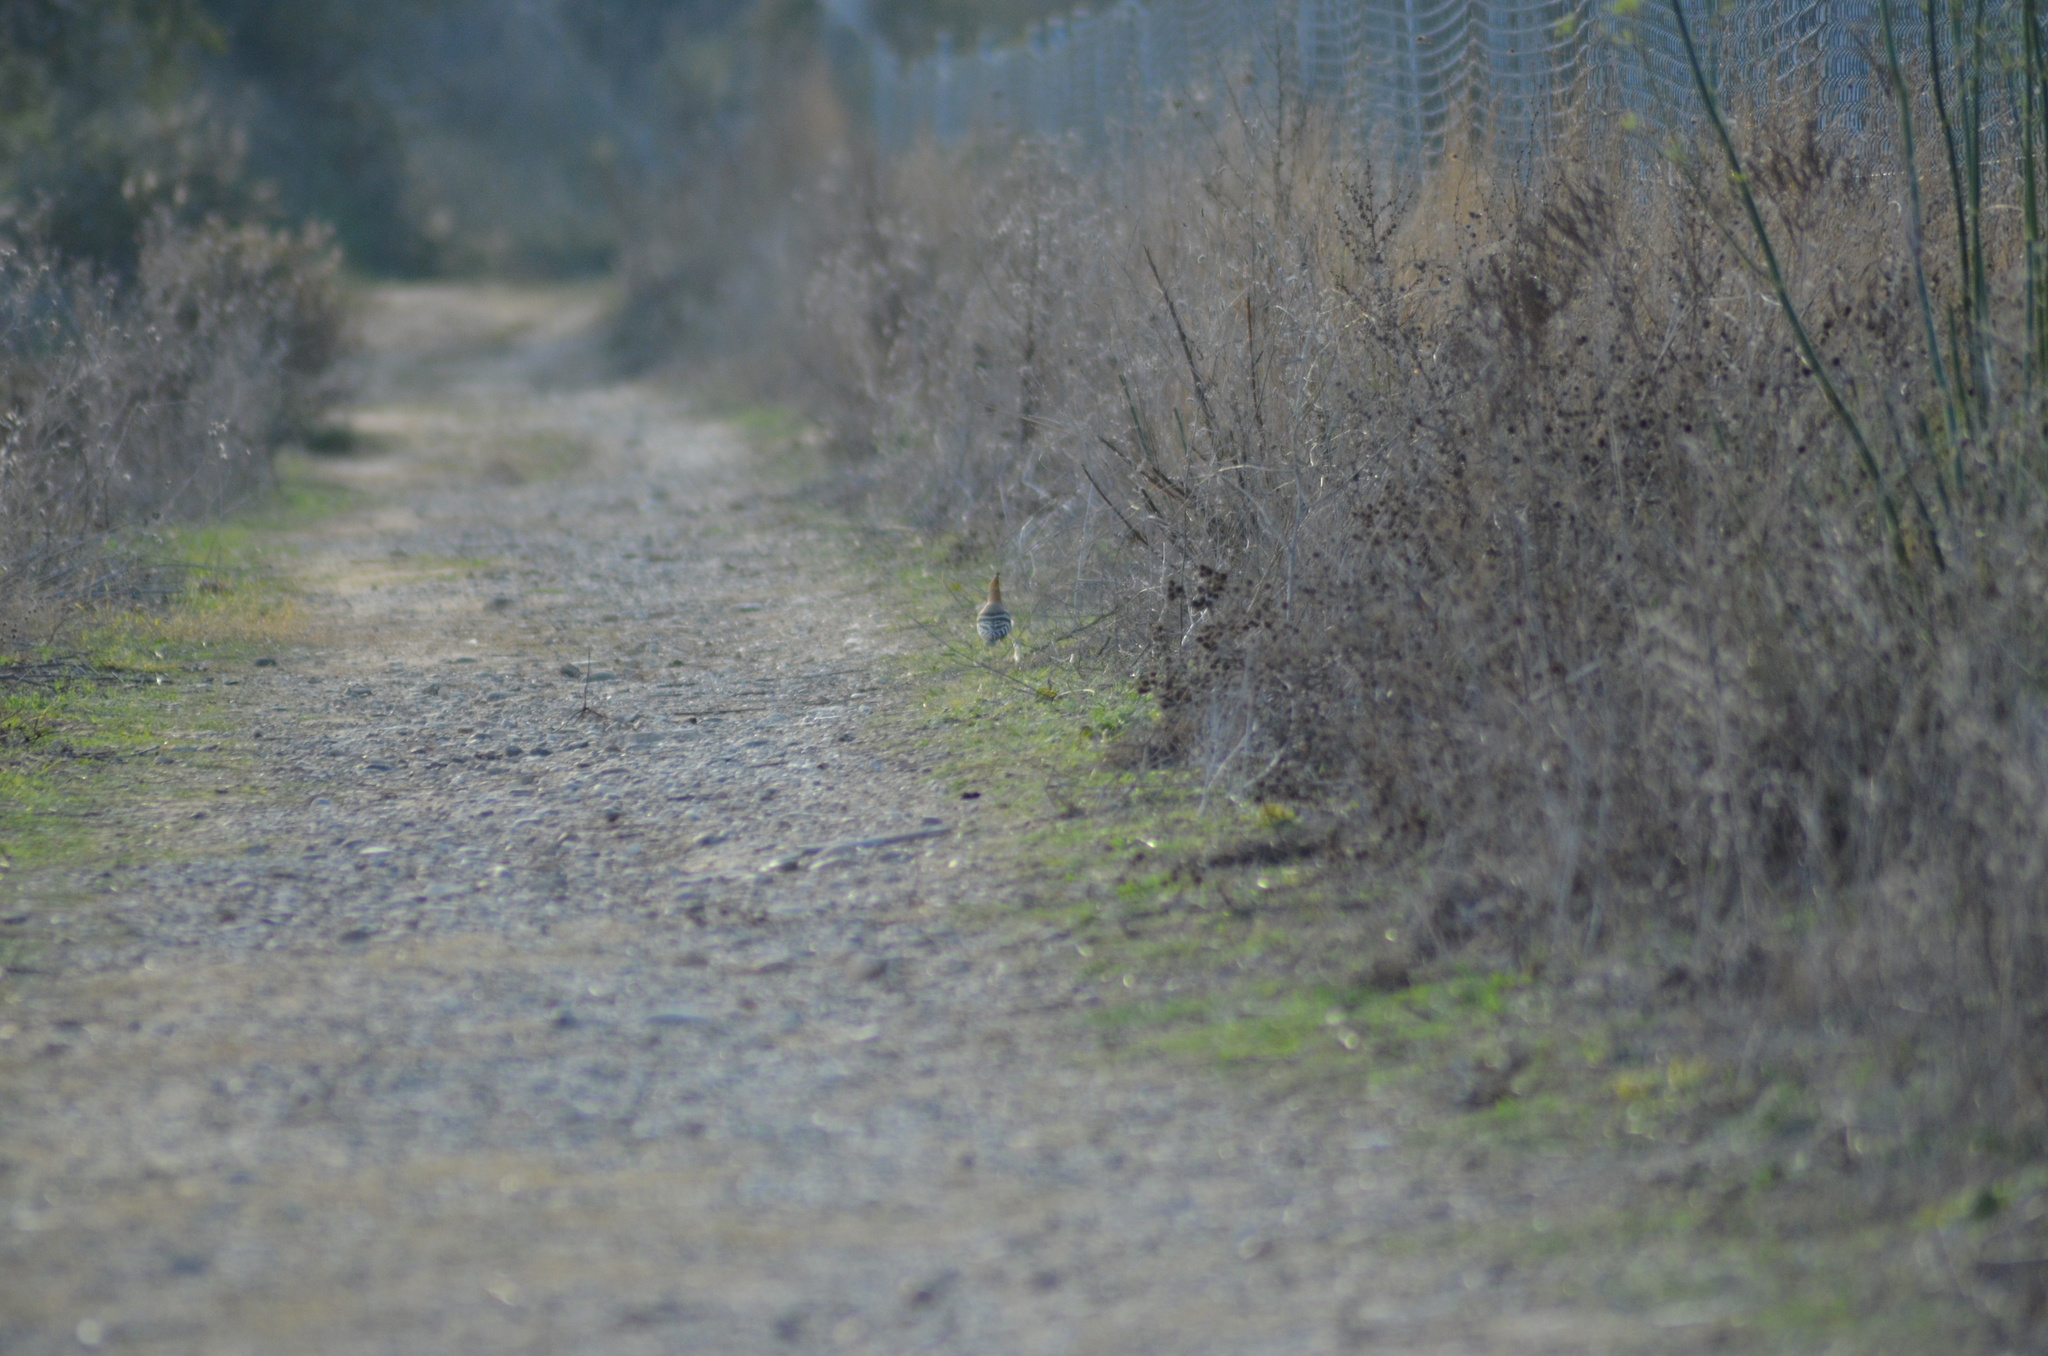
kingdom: Animalia
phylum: Chordata
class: Aves
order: Bucerotiformes
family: Upupidae
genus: Upupa
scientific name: Upupa epops
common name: Eurasian hoopoe
